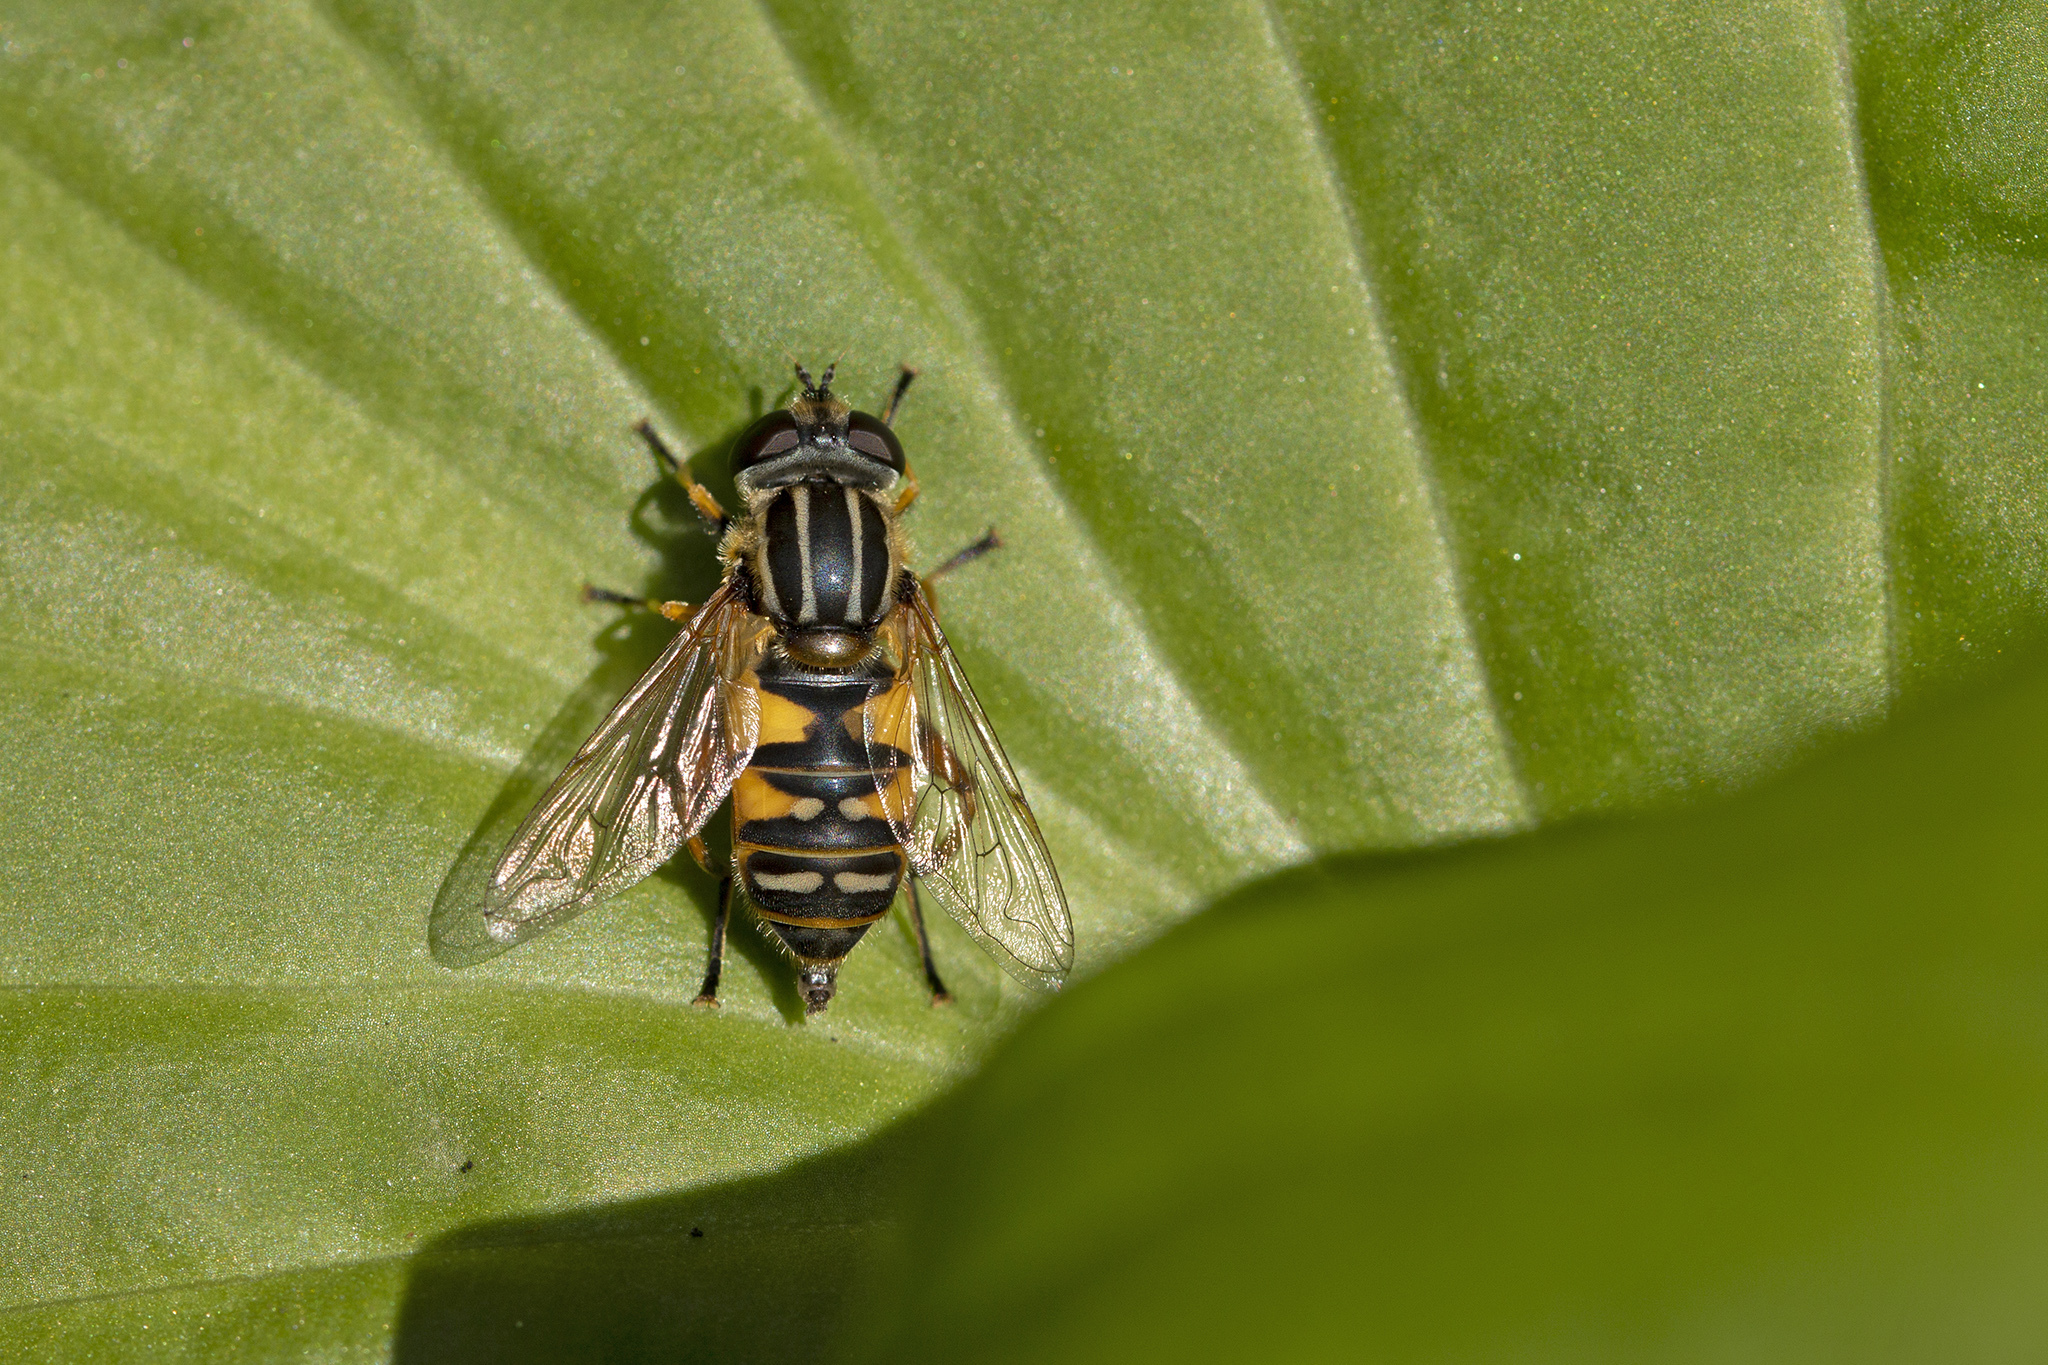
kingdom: Animalia
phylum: Arthropoda
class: Insecta
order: Diptera
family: Syrphidae
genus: Helophilus
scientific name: Helophilus pendulus
